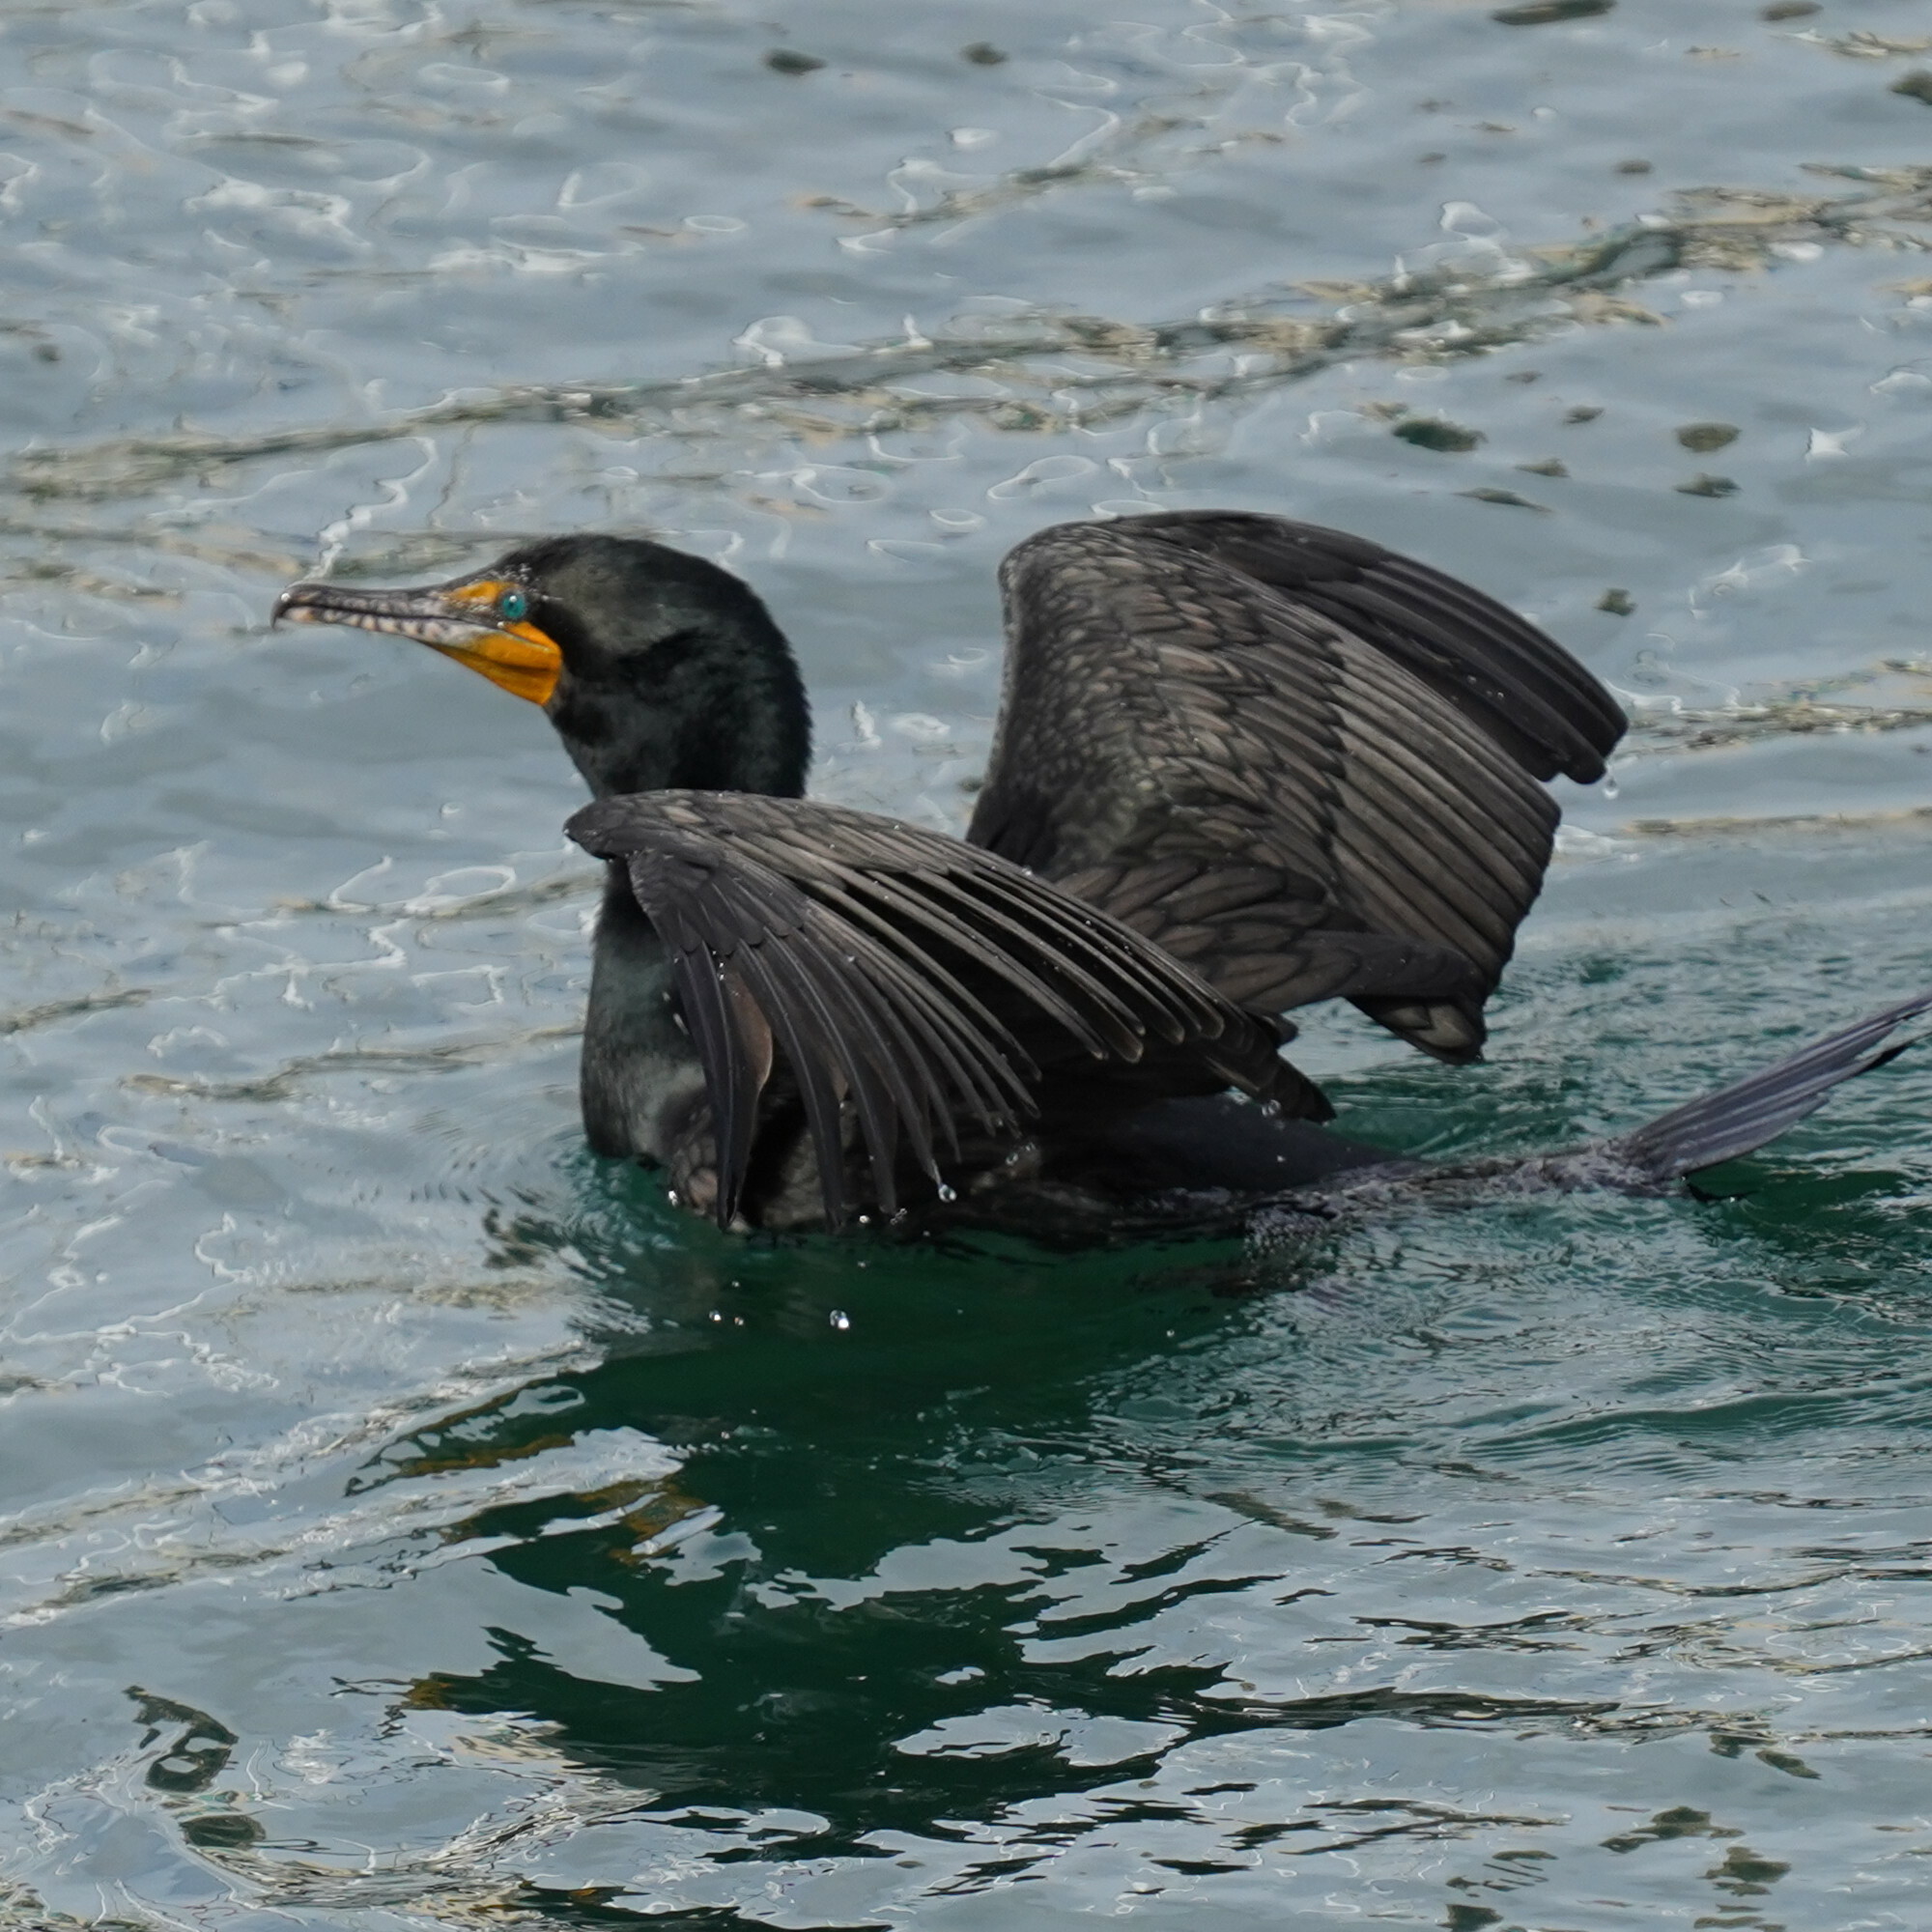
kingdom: Animalia
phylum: Chordata
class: Aves
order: Suliformes
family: Phalacrocoracidae
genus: Urile
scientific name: Urile penicillatus
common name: Brandt's cormorant
